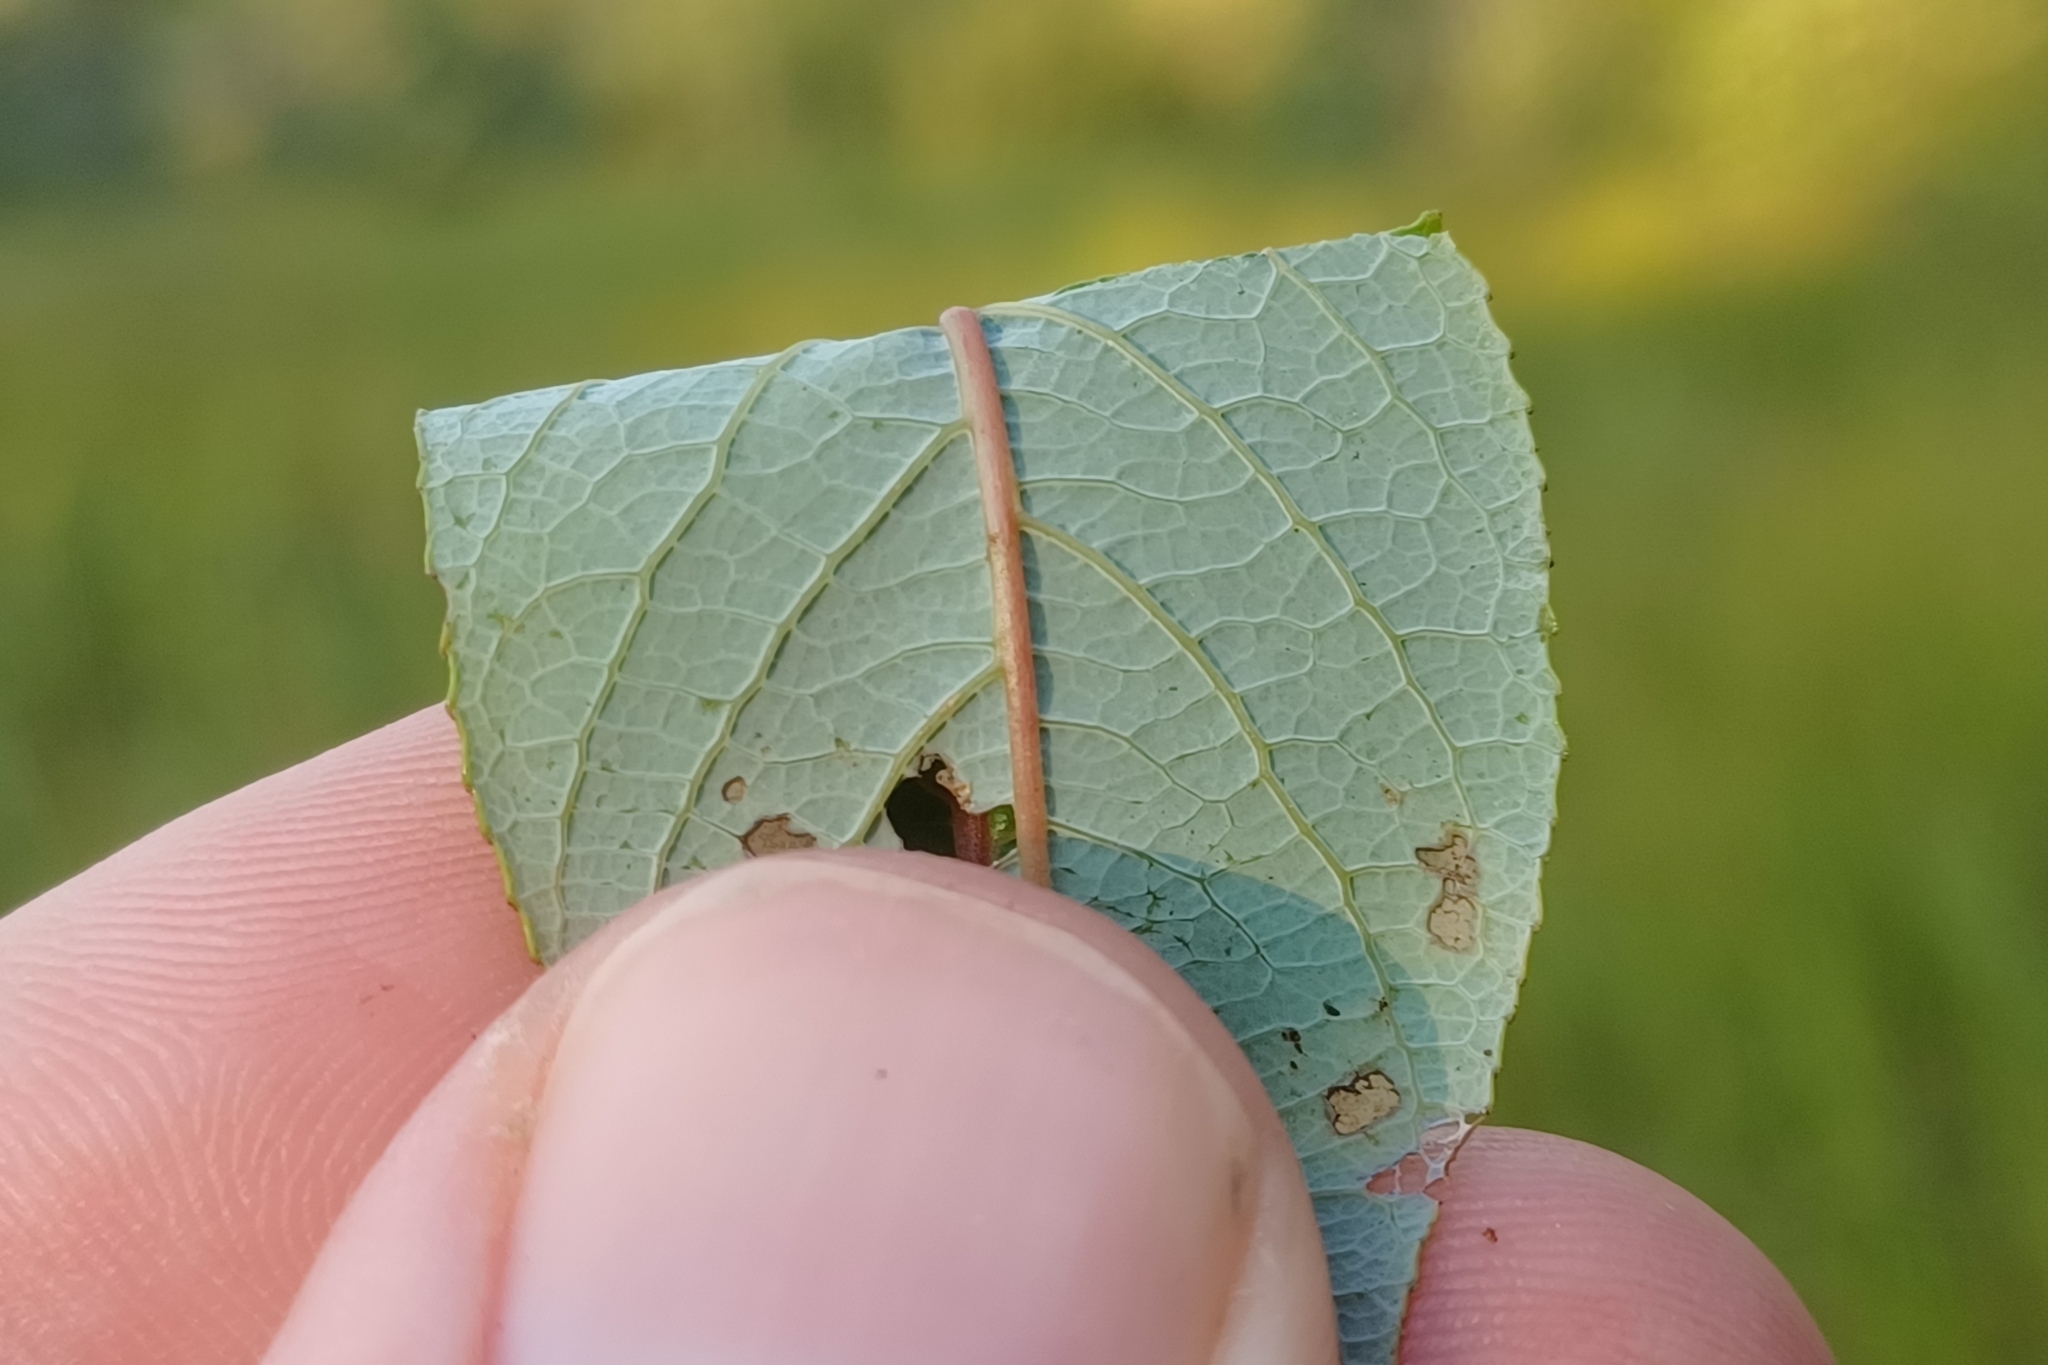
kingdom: Plantae
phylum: Tracheophyta
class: Magnoliopsida
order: Malpighiales
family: Salicaceae
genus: Salix
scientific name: Salix pyrifolia
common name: Balsam willow
